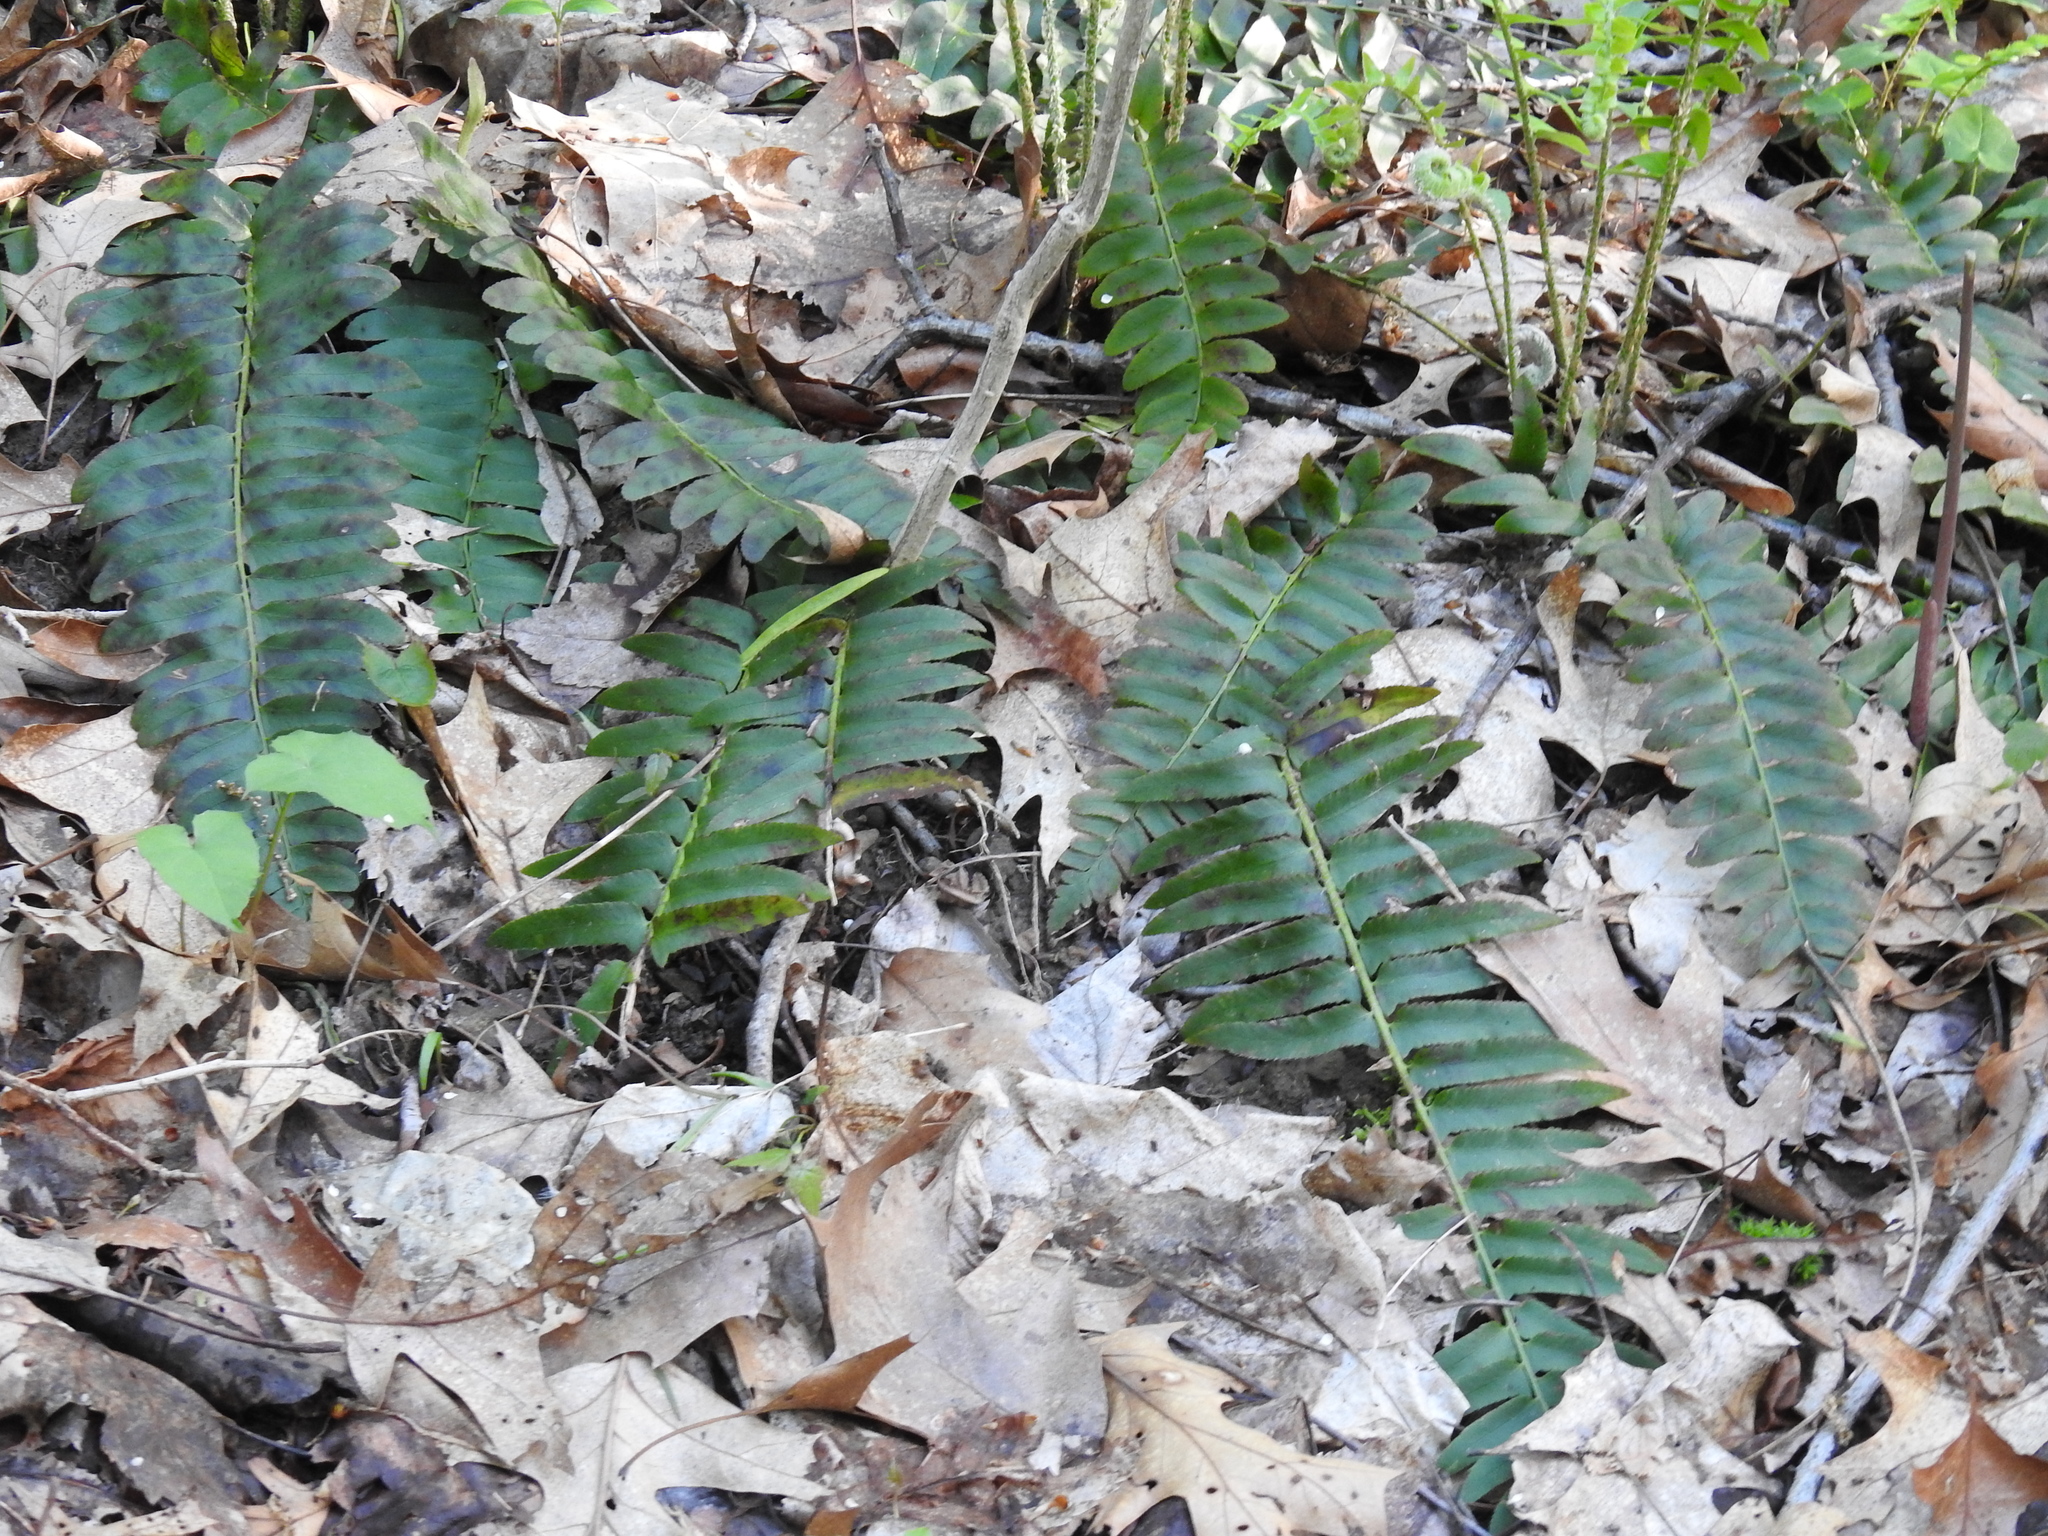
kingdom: Plantae
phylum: Tracheophyta
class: Polypodiopsida
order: Polypodiales
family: Dryopteridaceae
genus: Polystichum
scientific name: Polystichum acrostichoides
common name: Christmas fern
